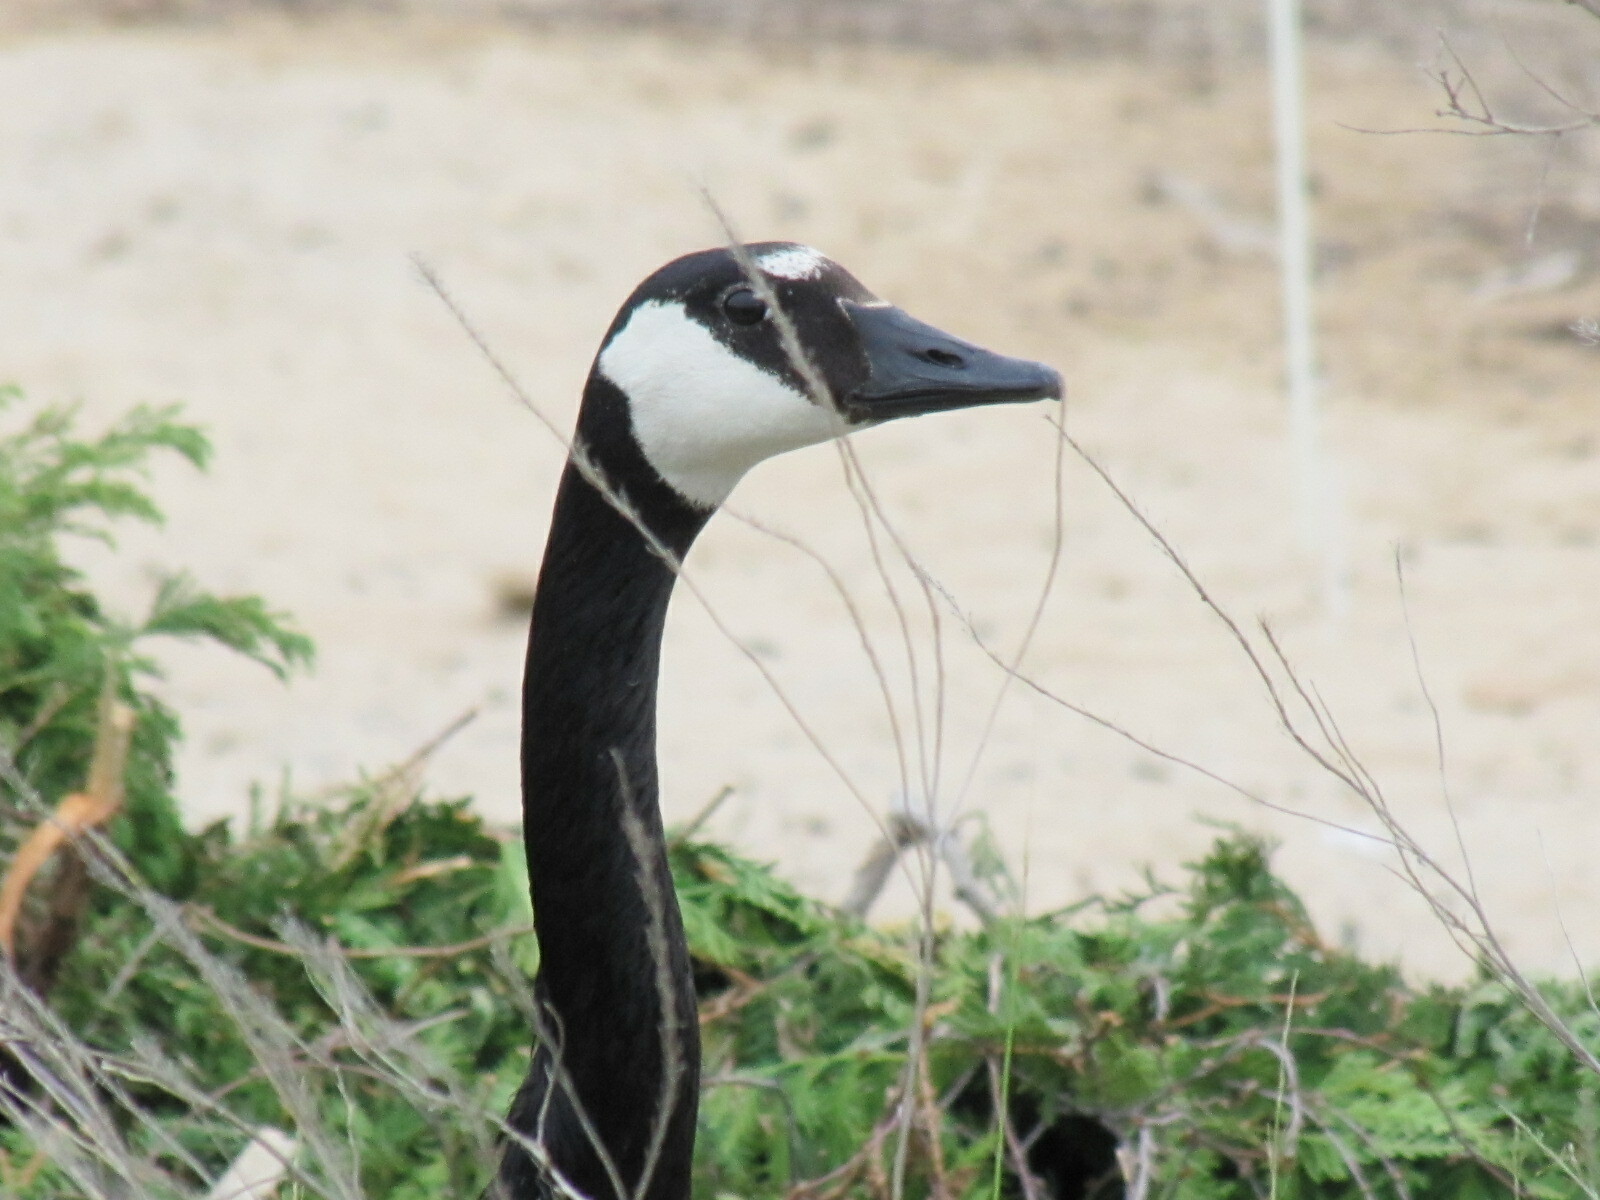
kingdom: Animalia
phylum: Chordata
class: Aves
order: Anseriformes
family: Anatidae
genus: Branta
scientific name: Branta canadensis
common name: Canada goose
